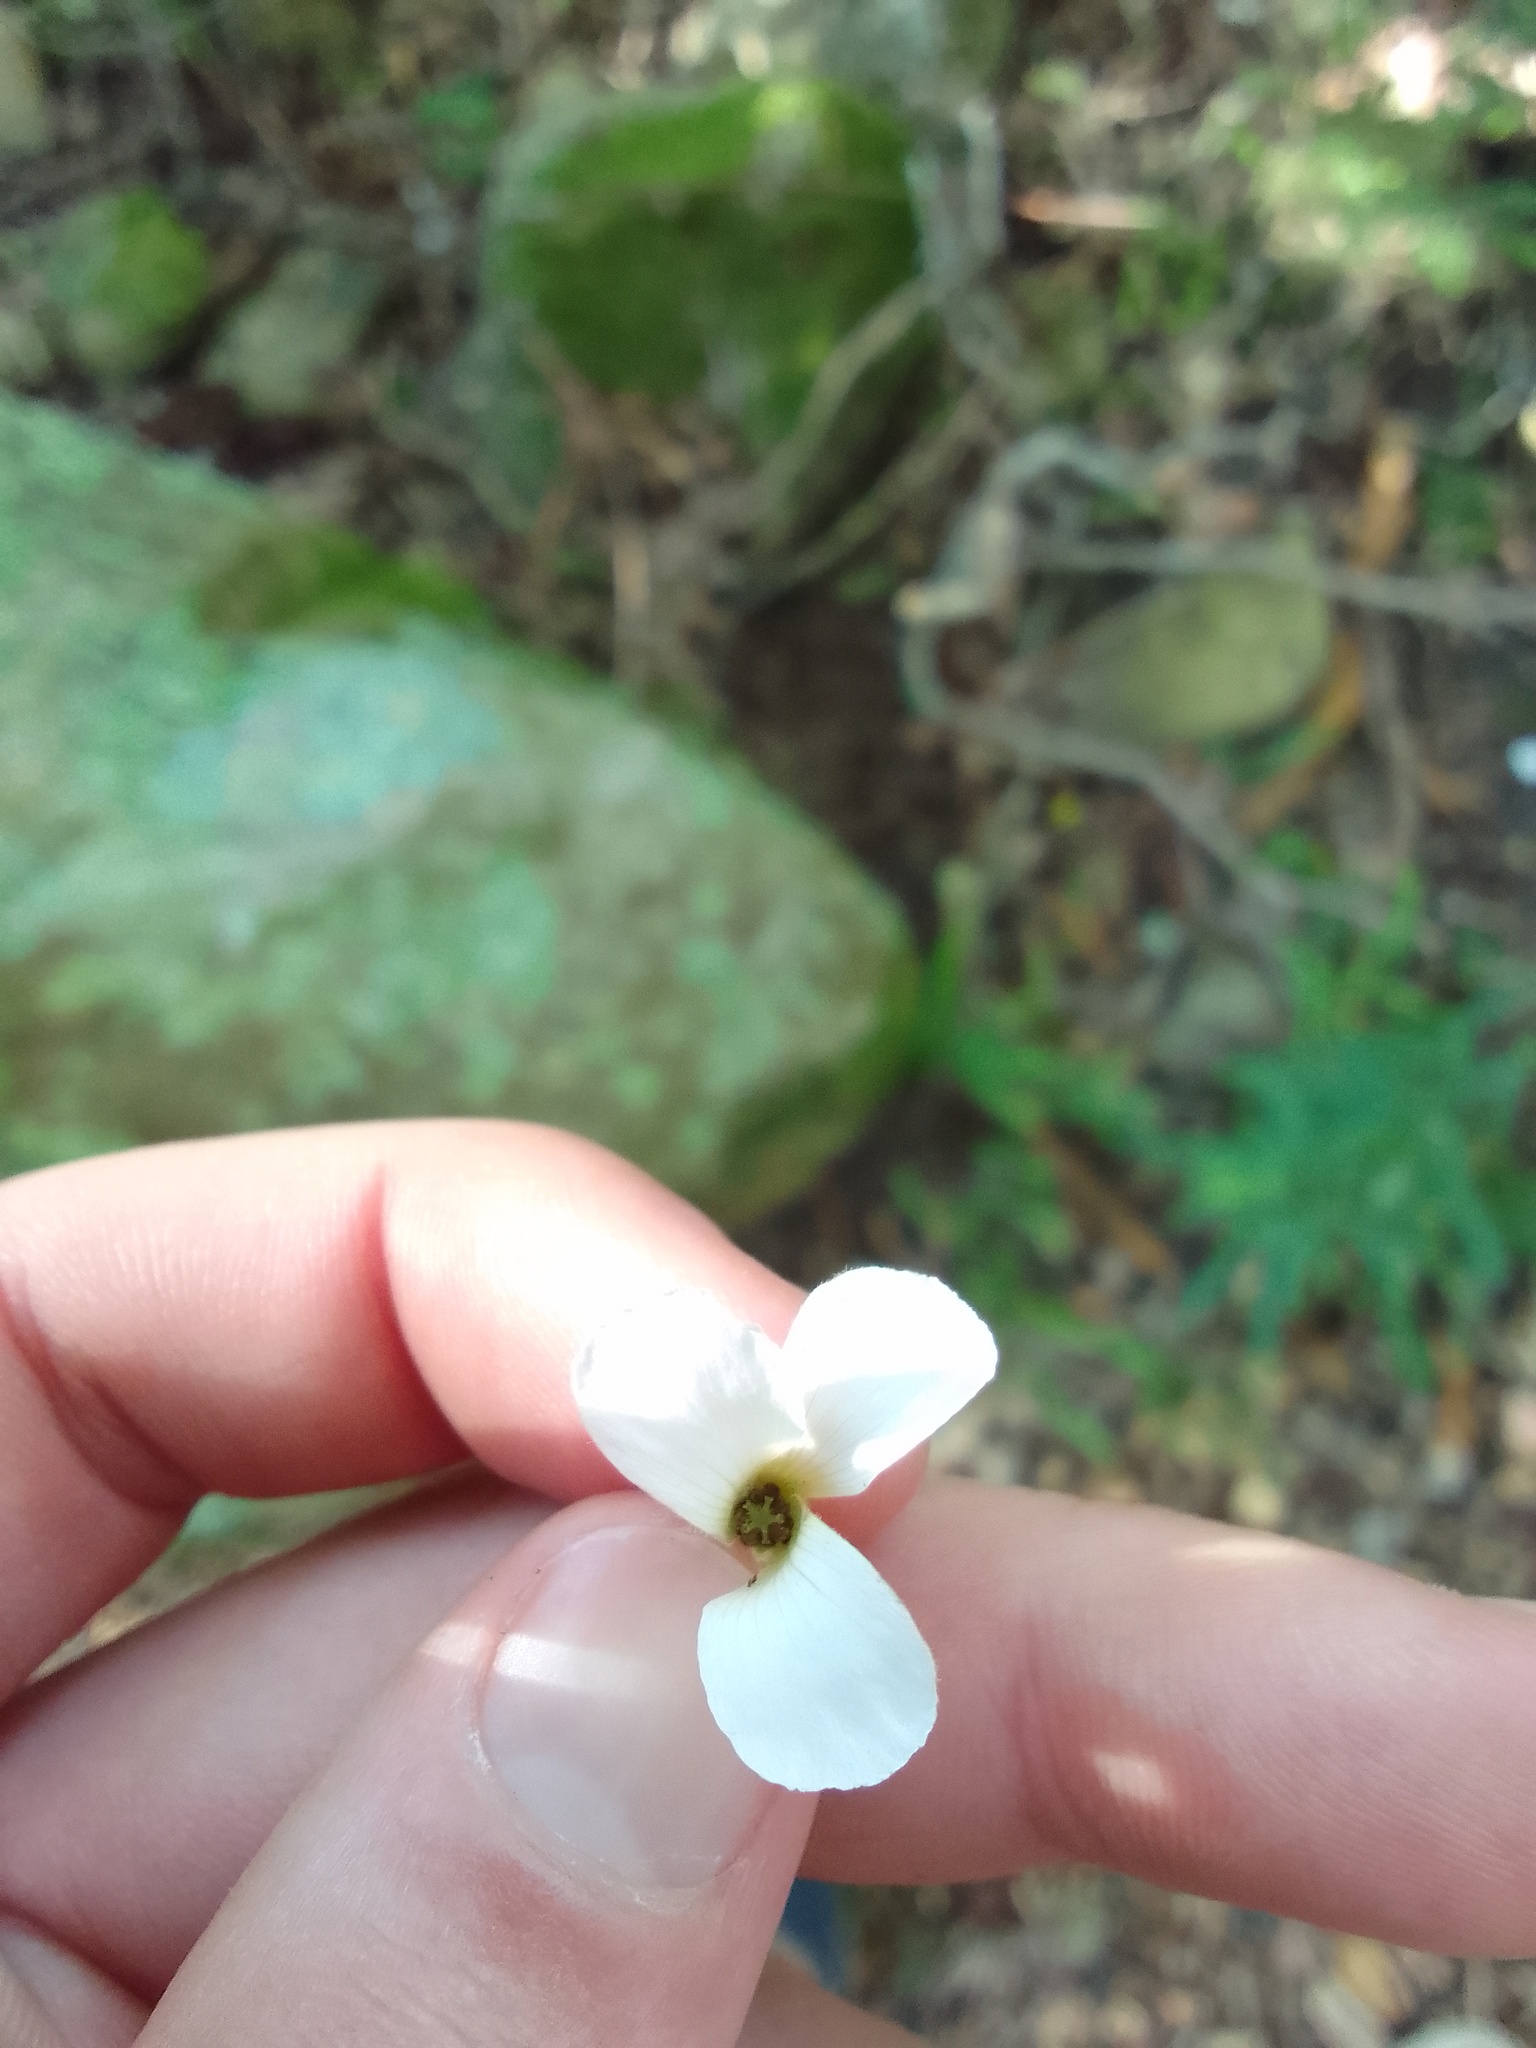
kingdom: Fungi
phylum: Basidiomycota
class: Ustilaginomycetes
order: Urocystidales
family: Glomosporiaceae
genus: Thecaphora
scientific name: Thecaphora capensis
